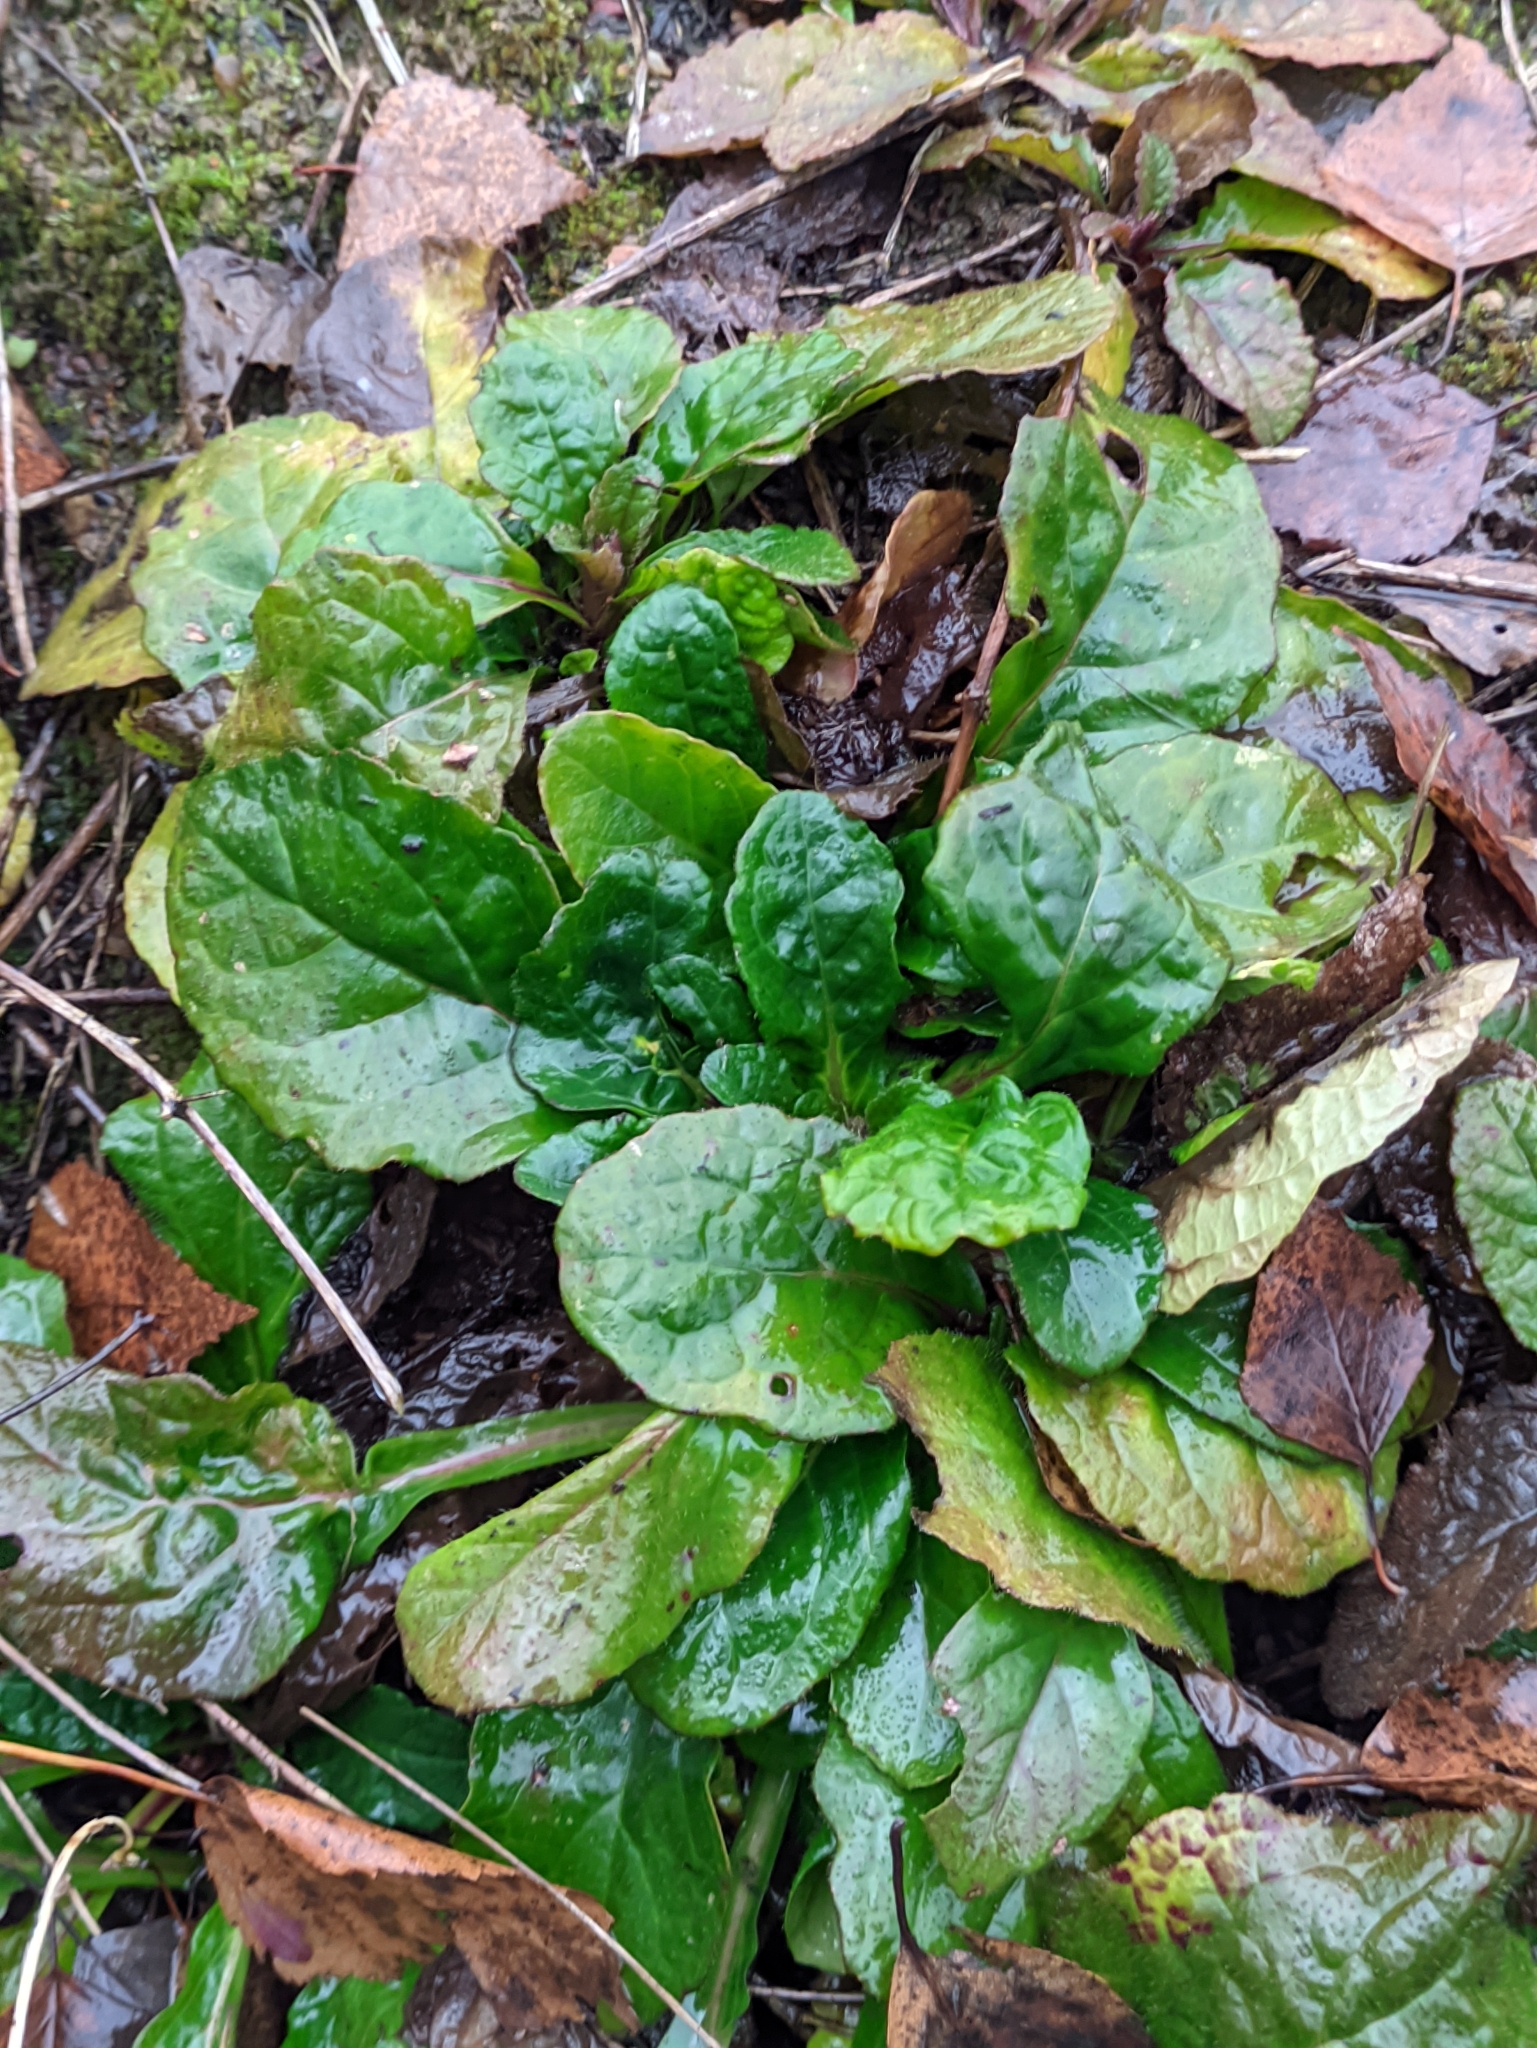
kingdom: Plantae
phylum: Tracheophyta
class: Magnoliopsida
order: Lamiales
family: Lamiaceae
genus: Ajuga
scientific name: Ajuga reptans
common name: Bugle
